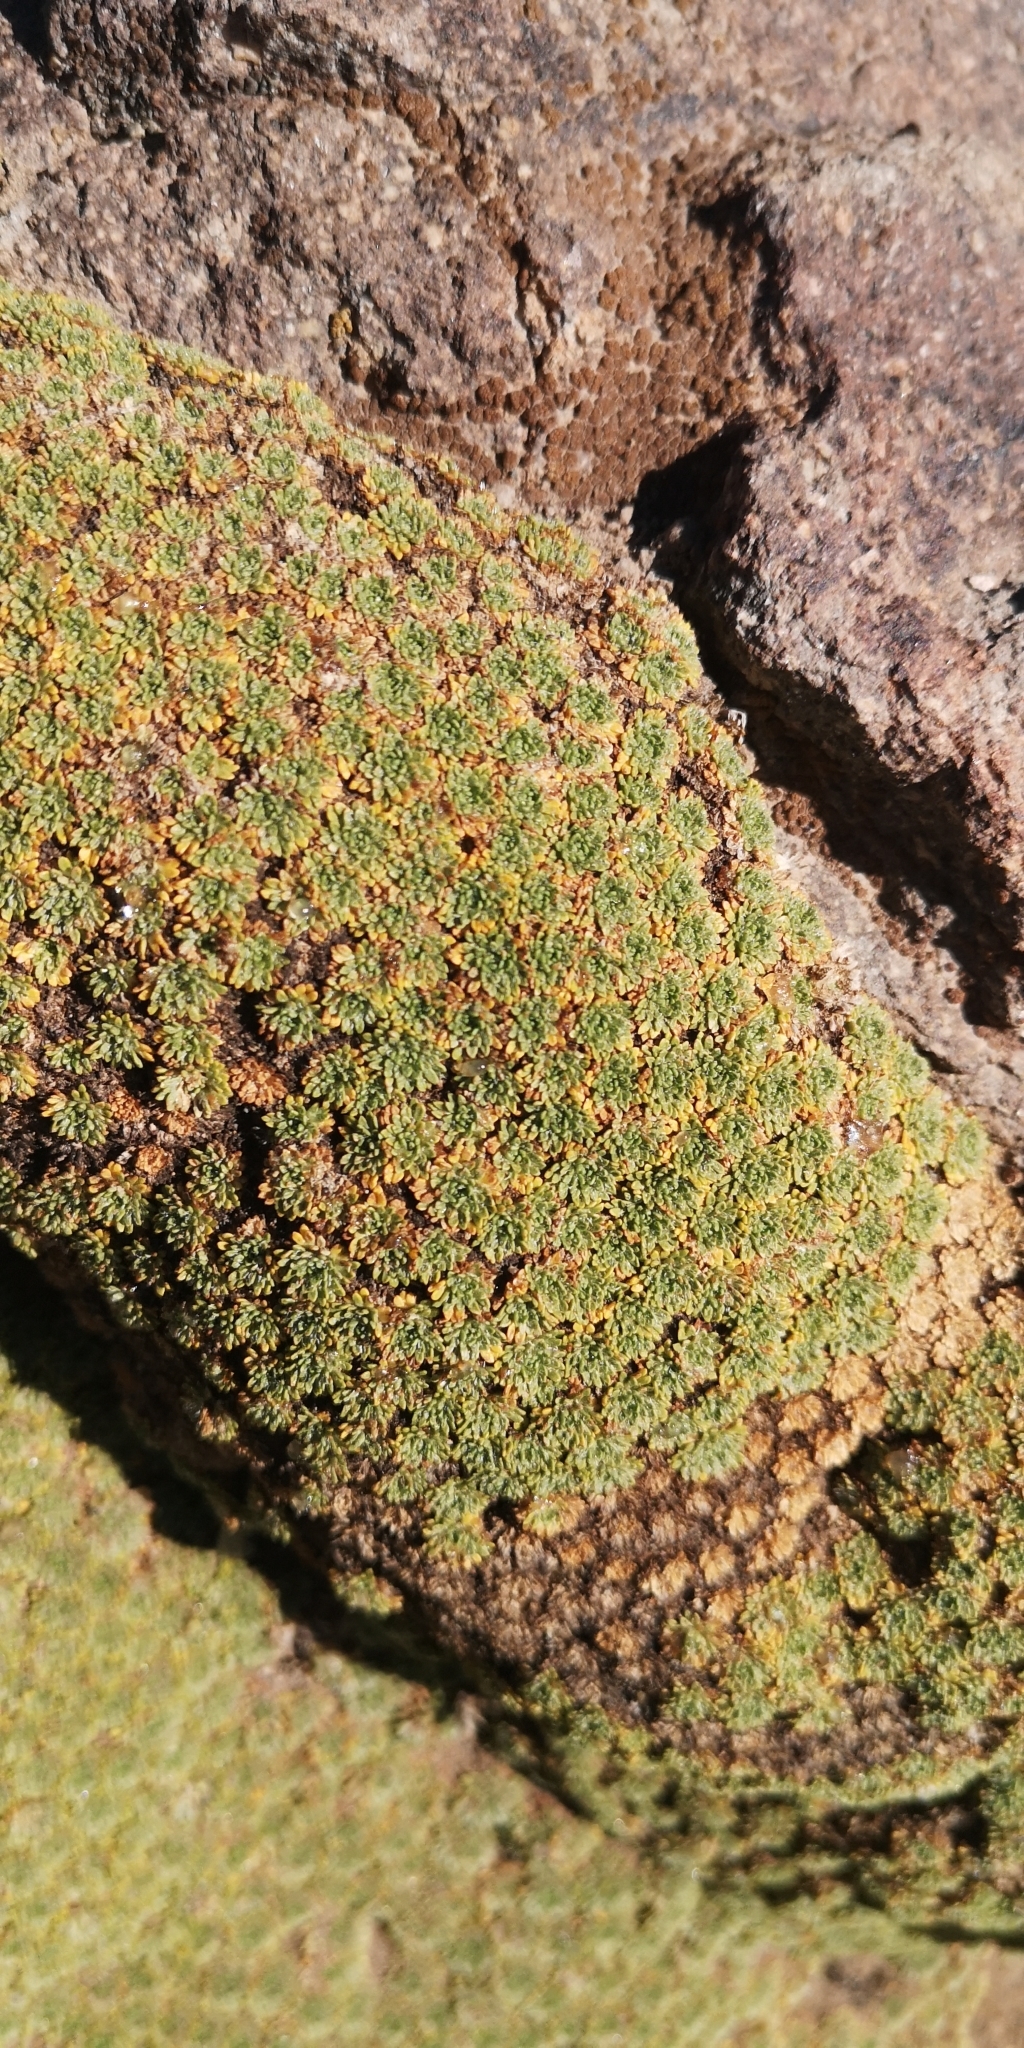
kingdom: Plantae
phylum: Tracheophyta
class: Magnoliopsida
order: Apiales
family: Apiaceae
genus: Azorella
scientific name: Azorella madreporica
